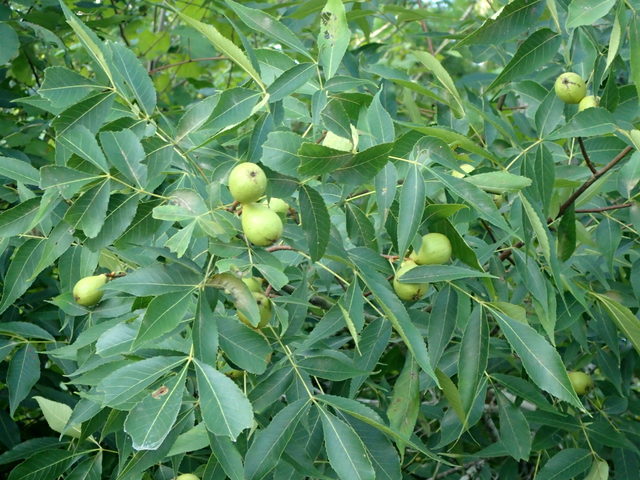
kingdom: Plantae
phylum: Tracheophyta
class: Magnoliopsida
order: Fagales
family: Juglandaceae
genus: Carya
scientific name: Carya glabra
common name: Pignut hickory
